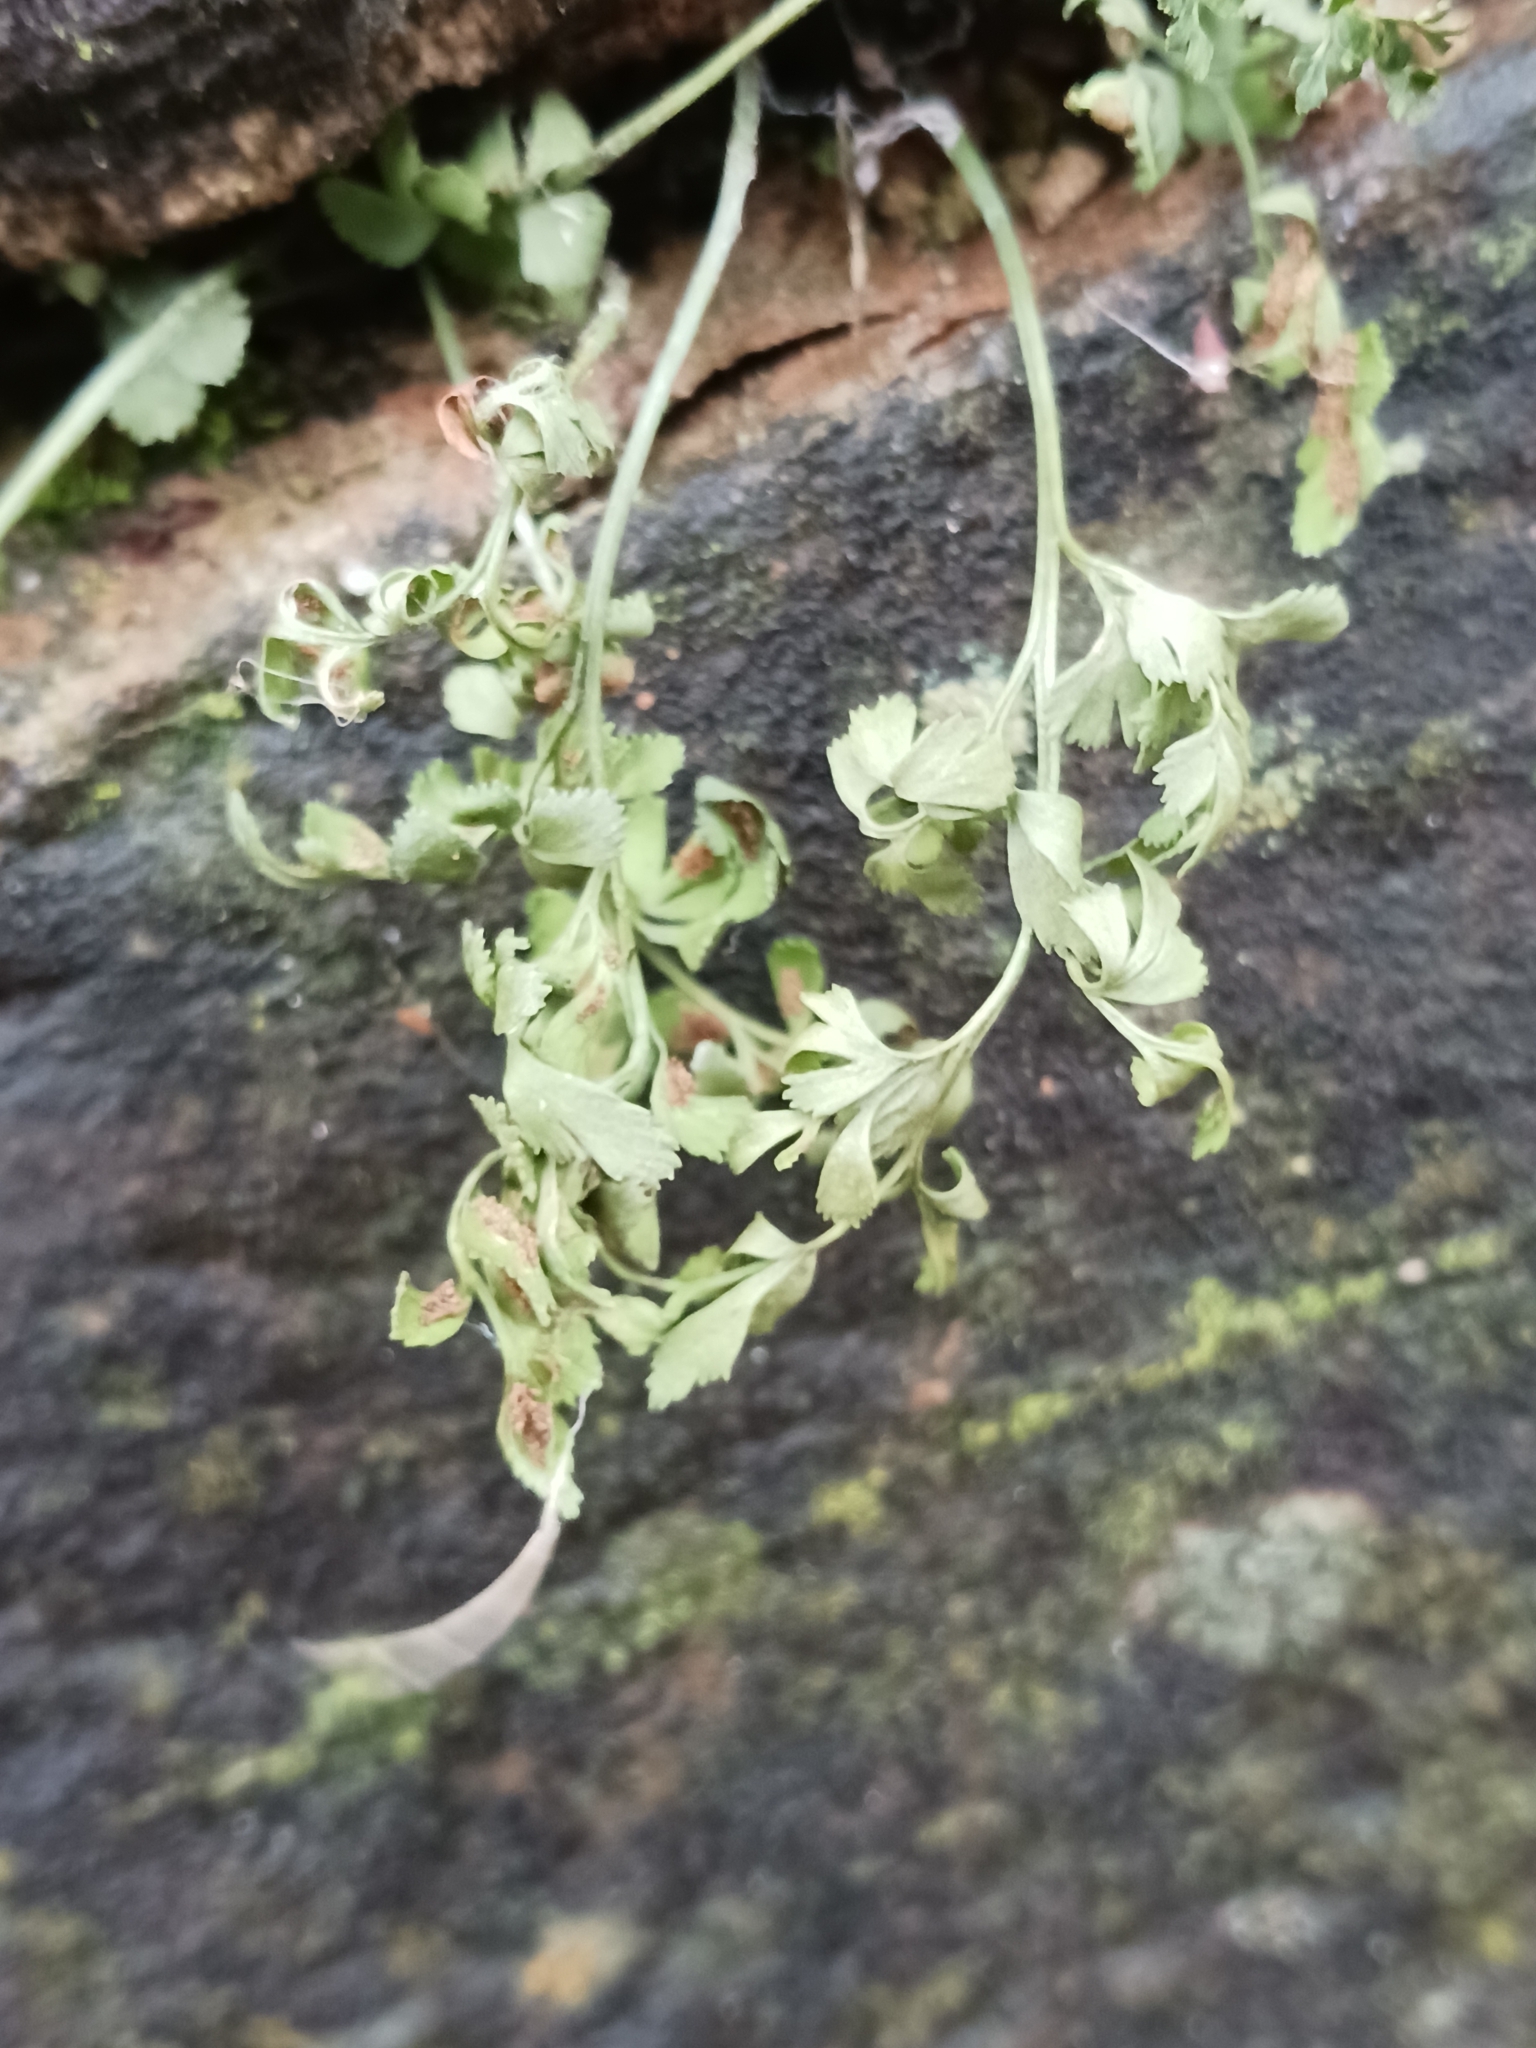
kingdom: Plantae
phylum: Tracheophyta
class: Polypodiopsida
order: Polypodiales
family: Aspleniaceae
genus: Asplenium
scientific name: Asplenium ruta-muraria
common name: Wall-rue
